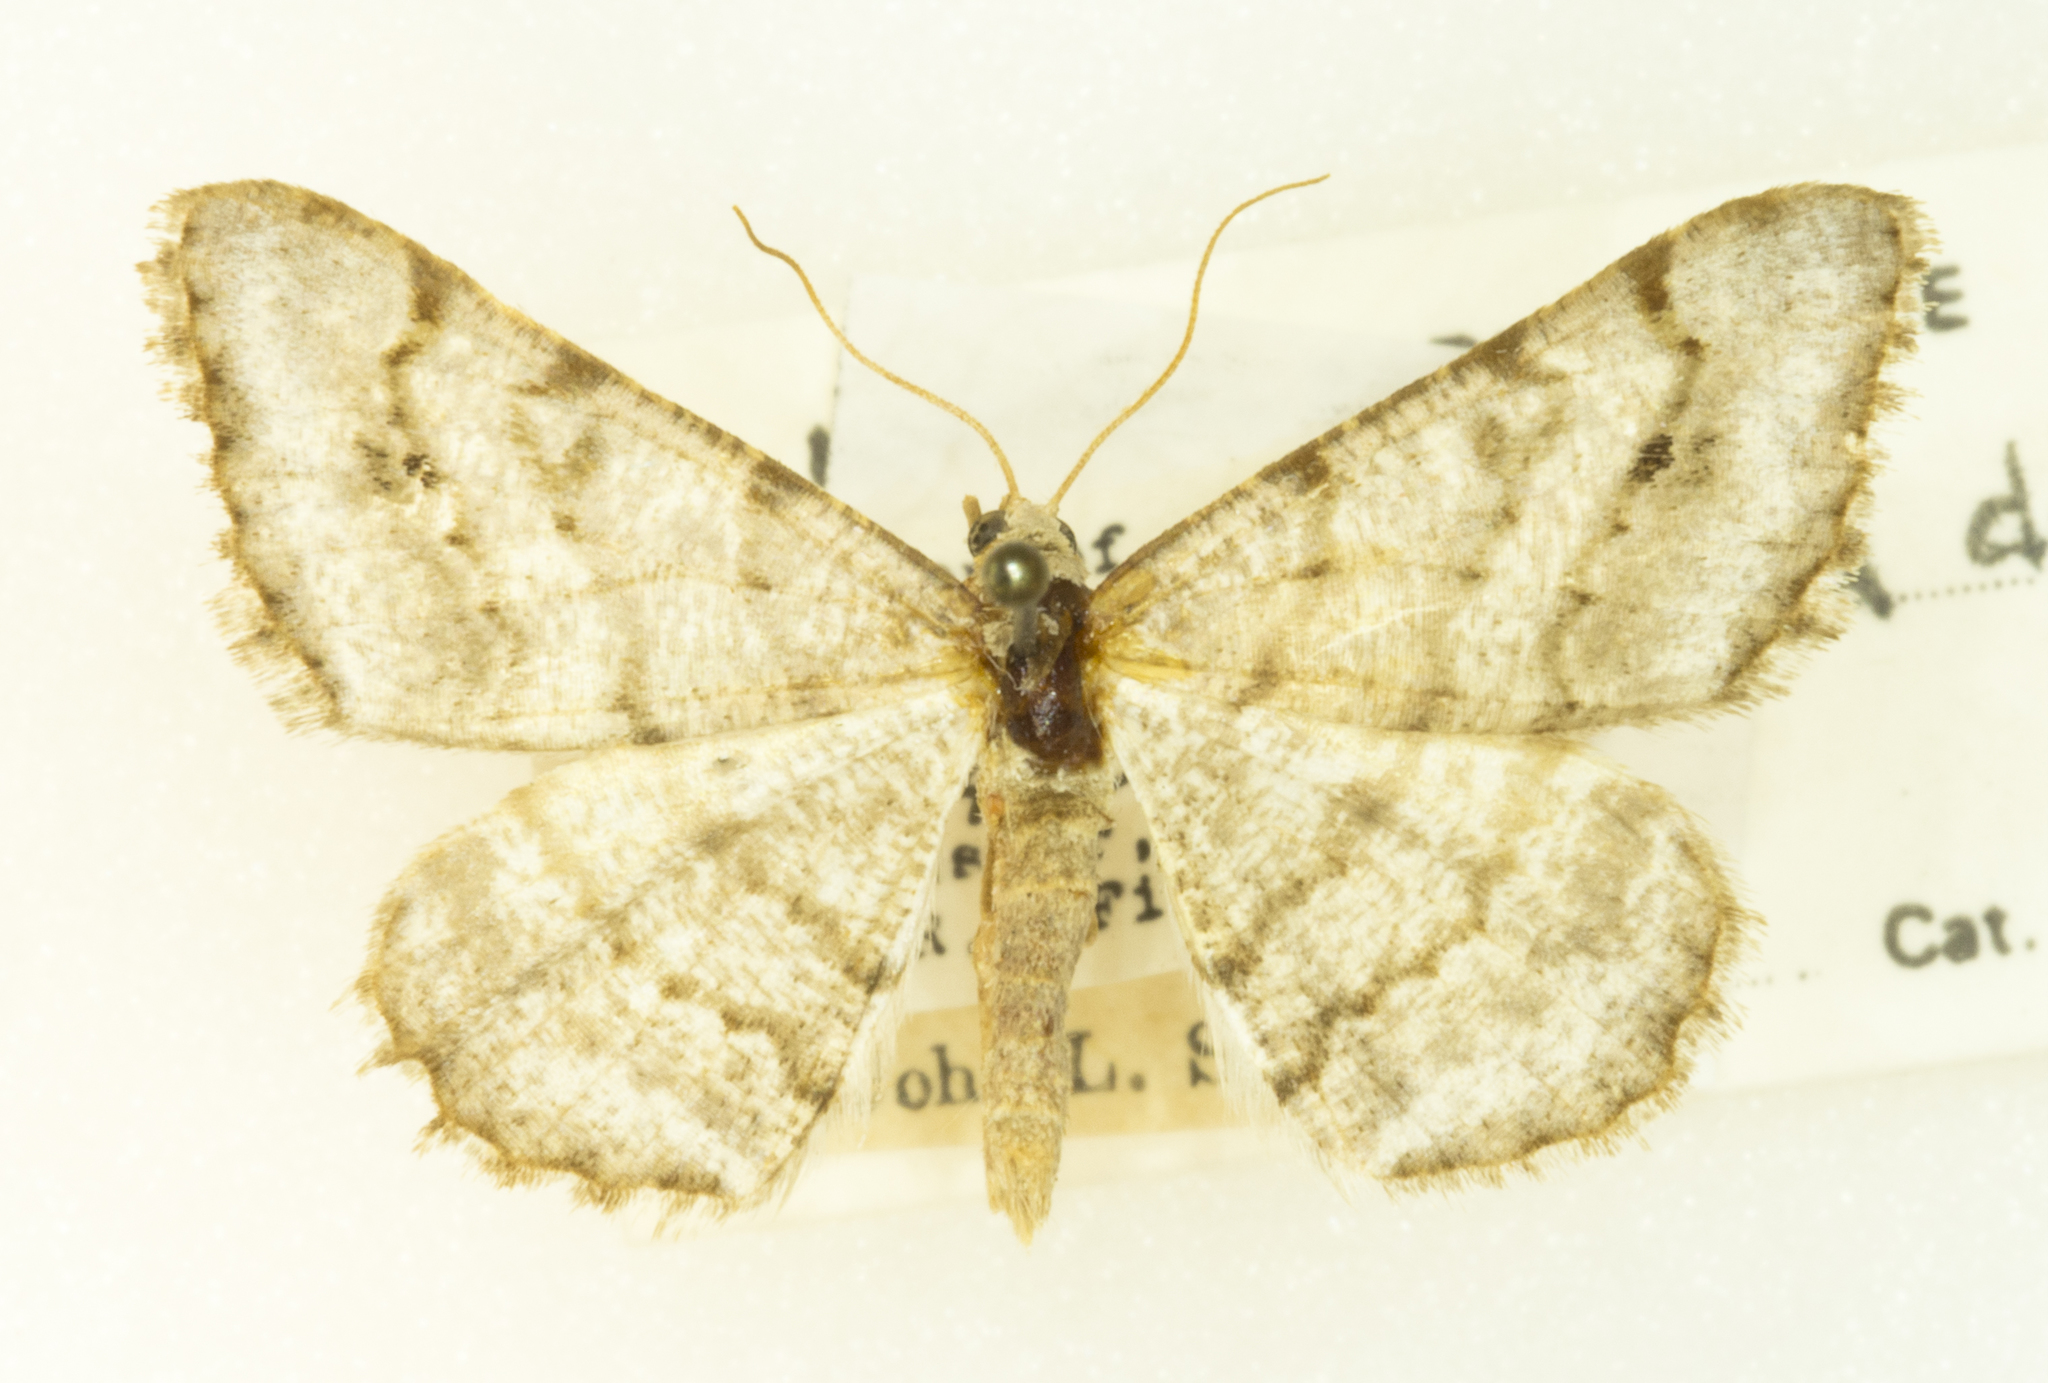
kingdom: Animalia
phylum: Arthropoda
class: Insecta
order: Lepidoptera
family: Geometridae
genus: Digrammia
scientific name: Digrammia denticulata
